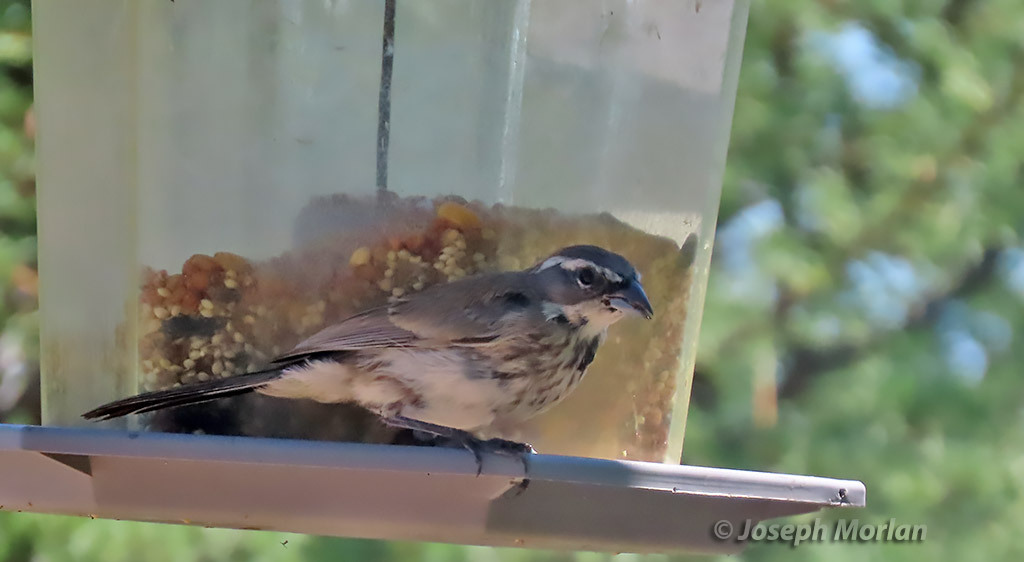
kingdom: Animalia
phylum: Chordata
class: Aves
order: Passeriformes
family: Passerellidae
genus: Amphispiza
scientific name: Amphispiza bilineata
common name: Black-throated sparrow
